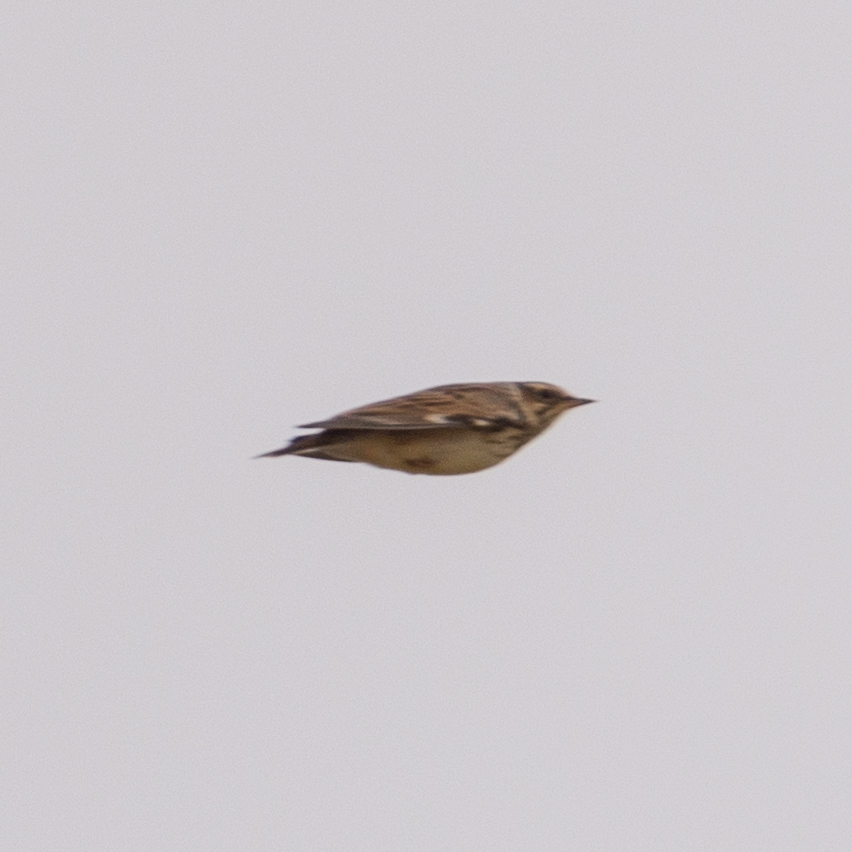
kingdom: Animalia
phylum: Chordata
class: Aves
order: Passeriformes
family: Alaudidae
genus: Lullula
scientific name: Lullula arborea
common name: Woodlark
